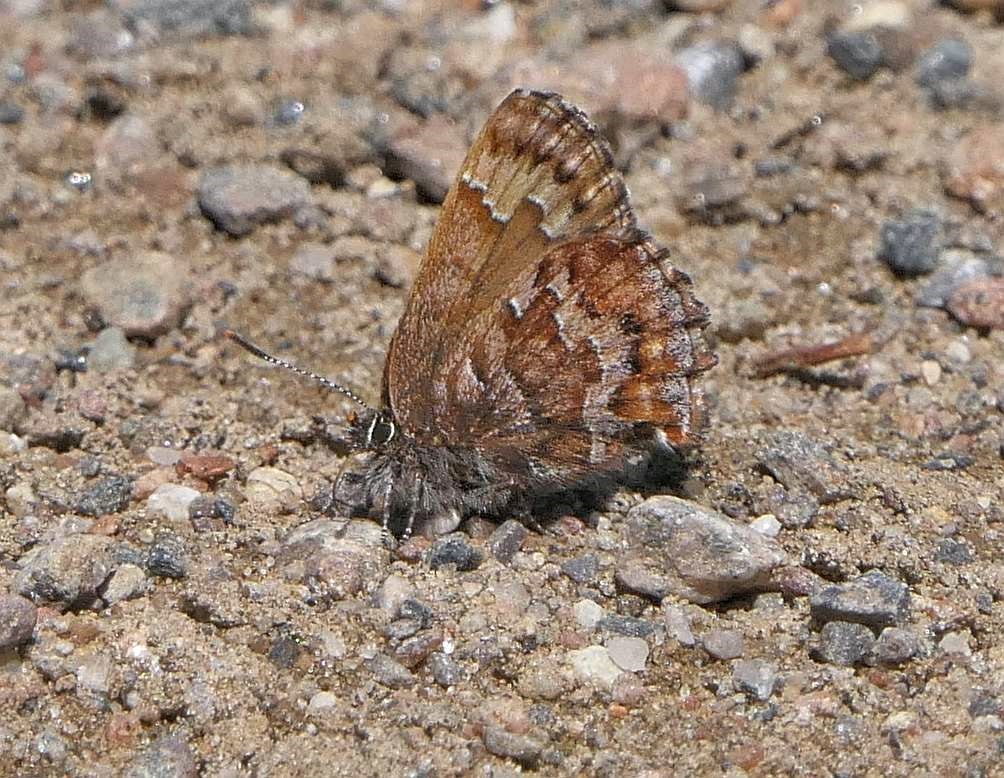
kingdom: Animalia
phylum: Arthropoda
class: Insecta
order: Lepidoptera
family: Lycaenidae
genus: Incisalia
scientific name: Incisalia niphon
